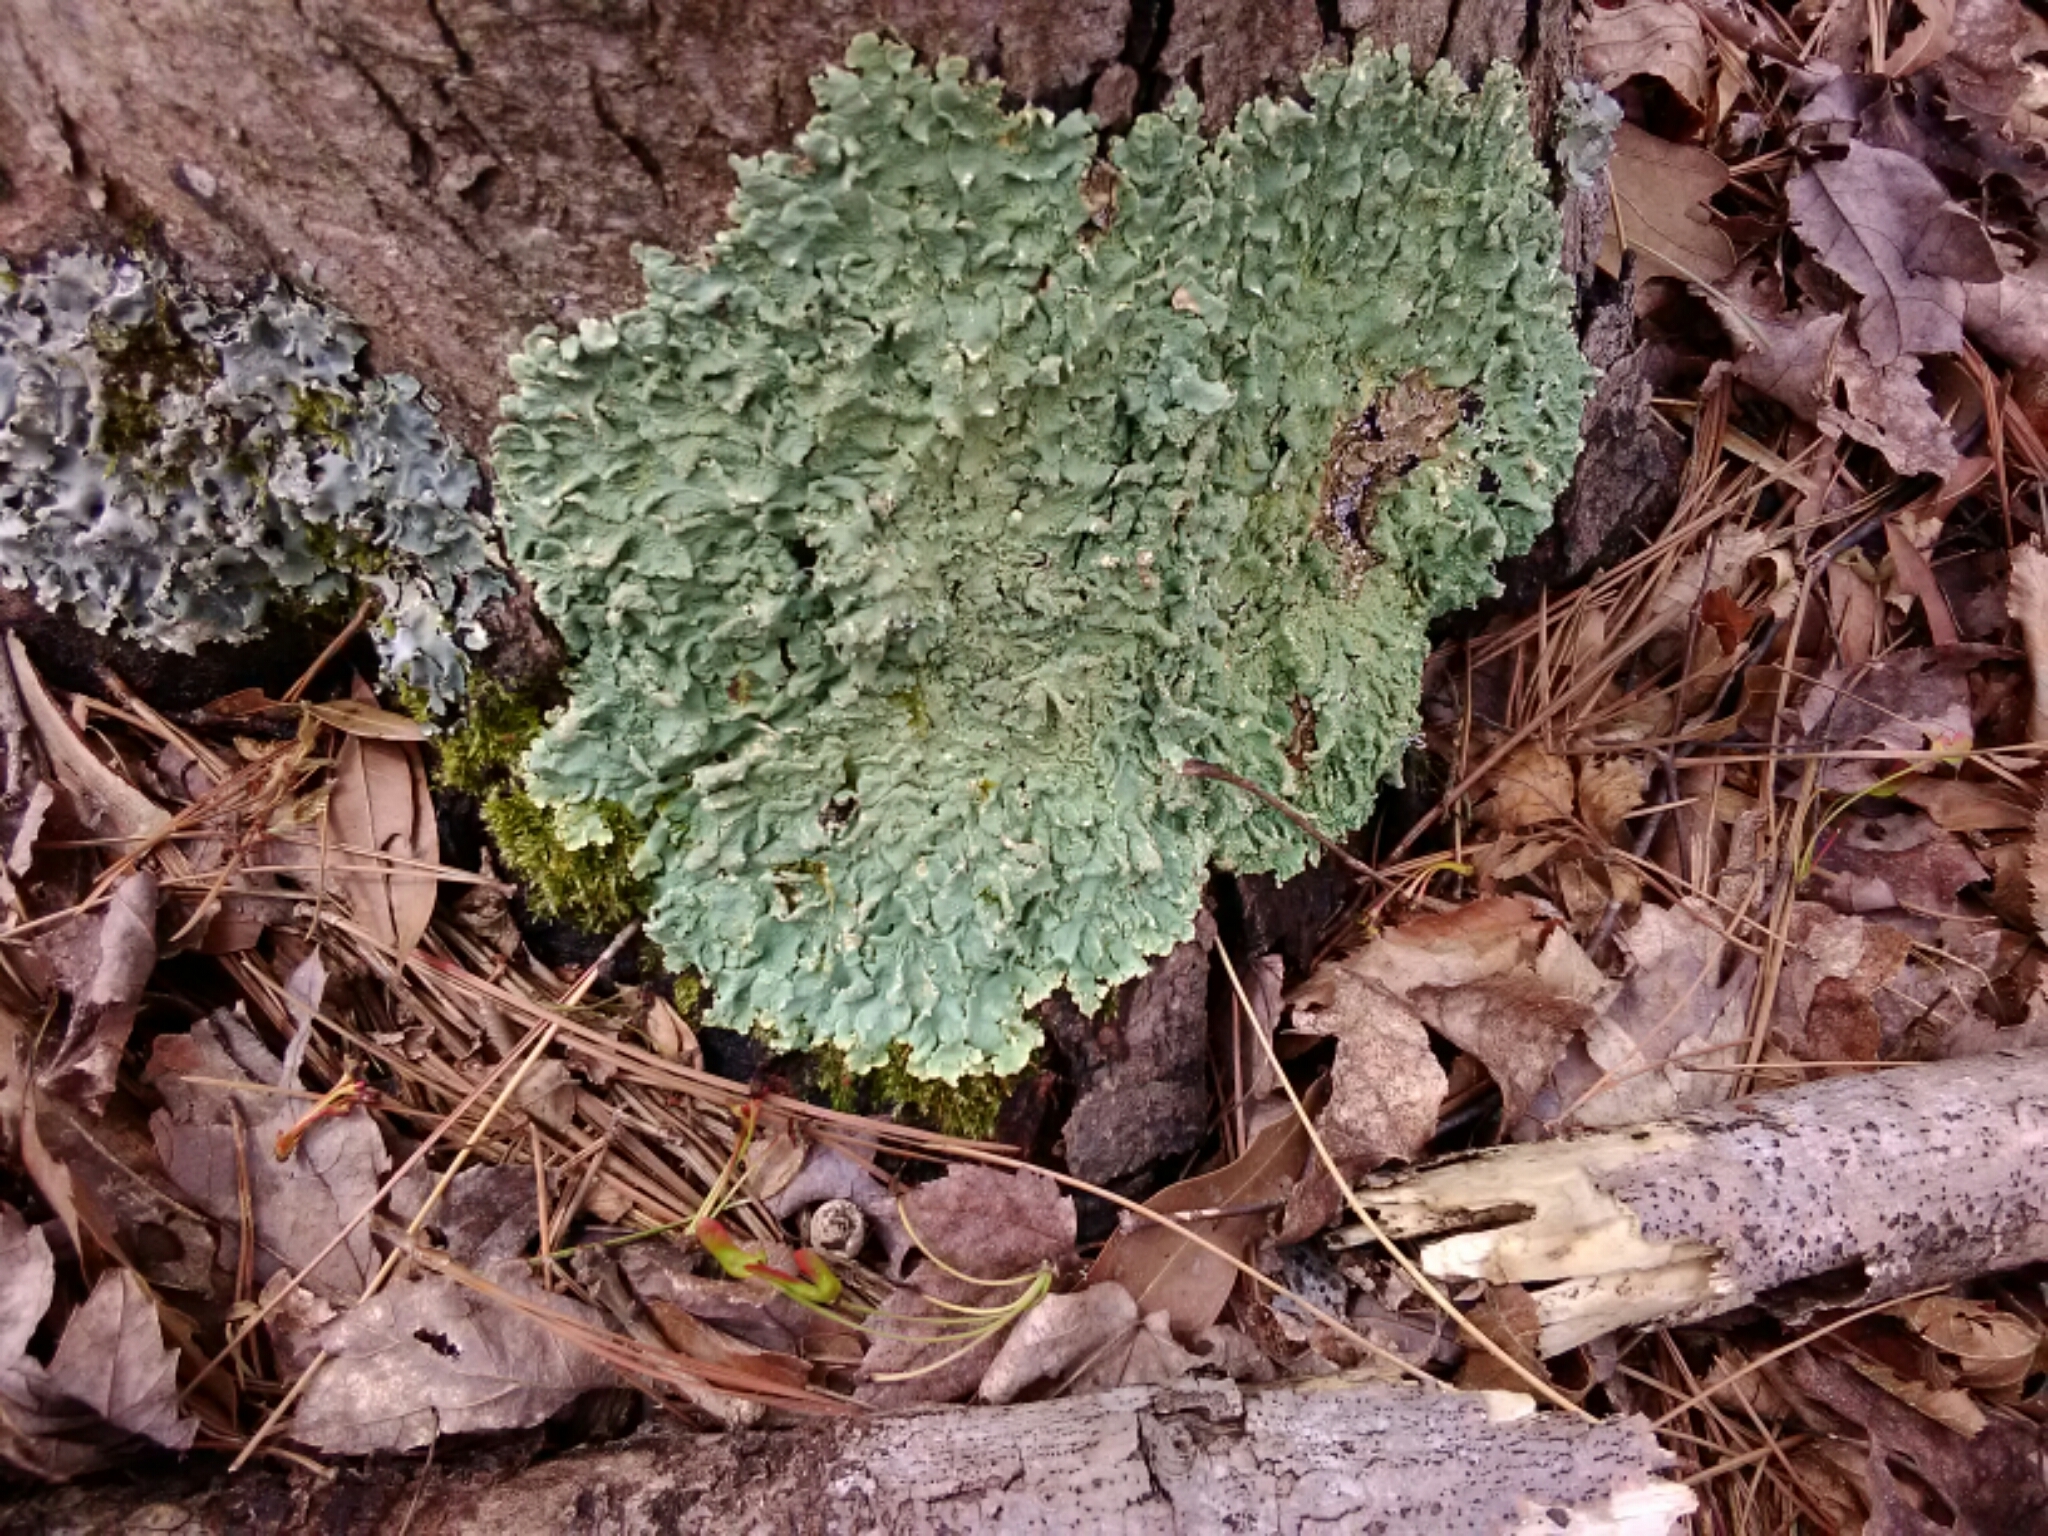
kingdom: Fungi
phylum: Ascomycota
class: Lecanoromycetes
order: Lecanorales
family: Parmeliaceae
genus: Flavoparmelia
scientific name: Flavoparmelia caperata
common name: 40-mile per hour lichen
